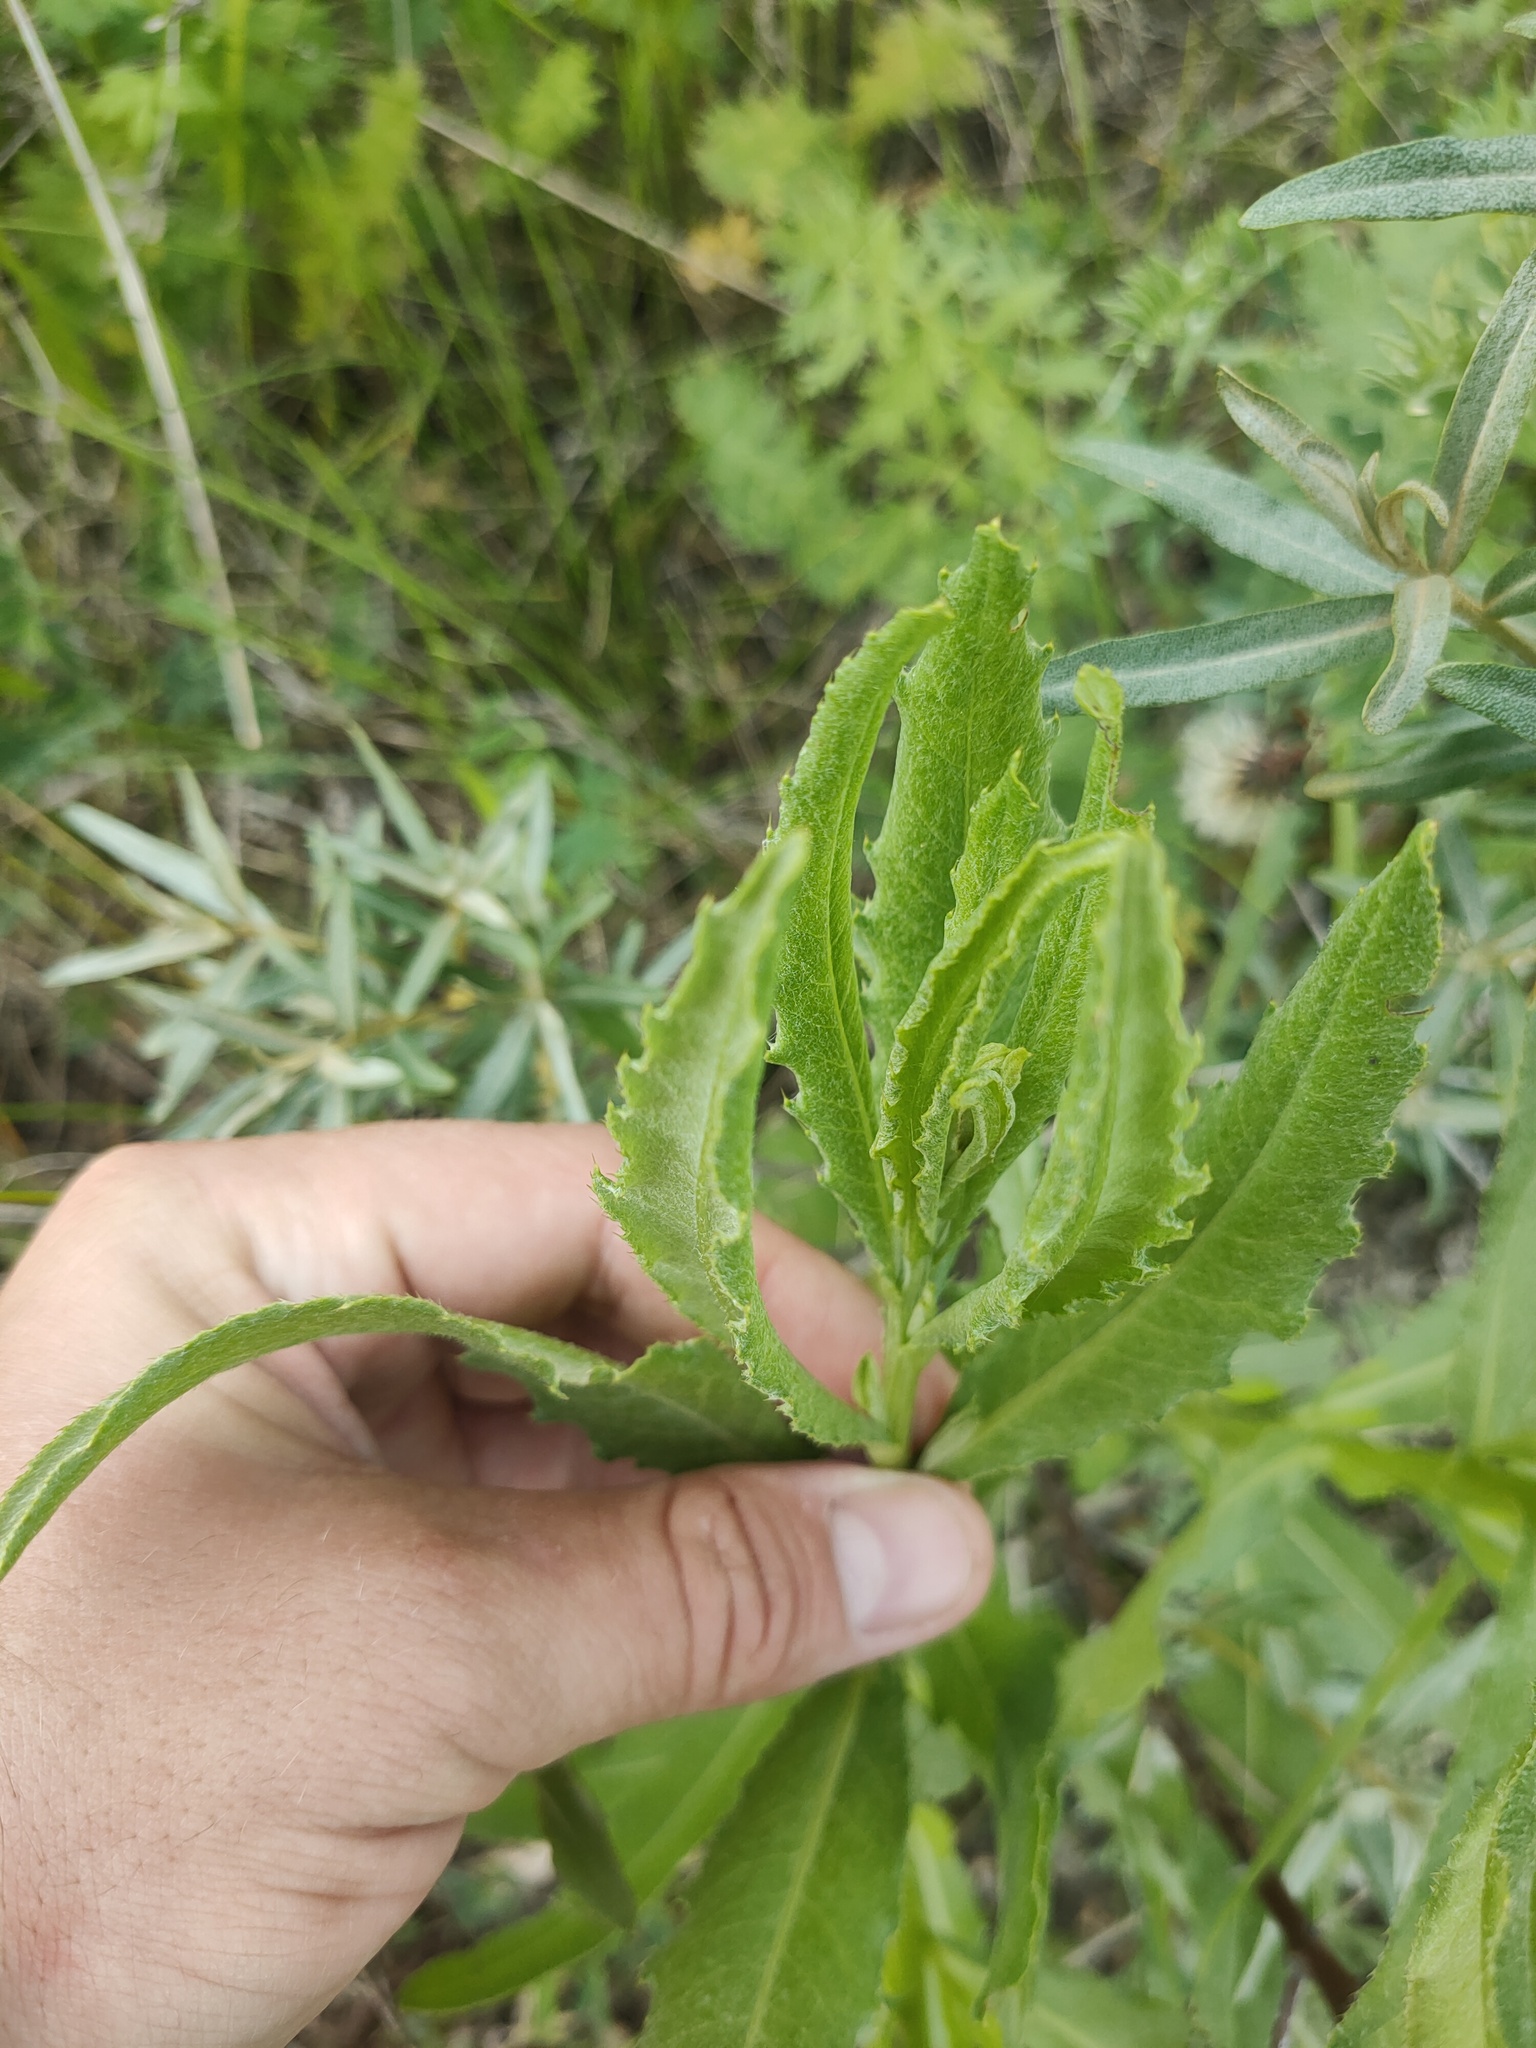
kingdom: Plantae
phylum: Tracheophyta
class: Magnoliopsida
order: Asterales
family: Asteraceae
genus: Cirsium
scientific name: Cirsium arvense
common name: Creeping thistle
